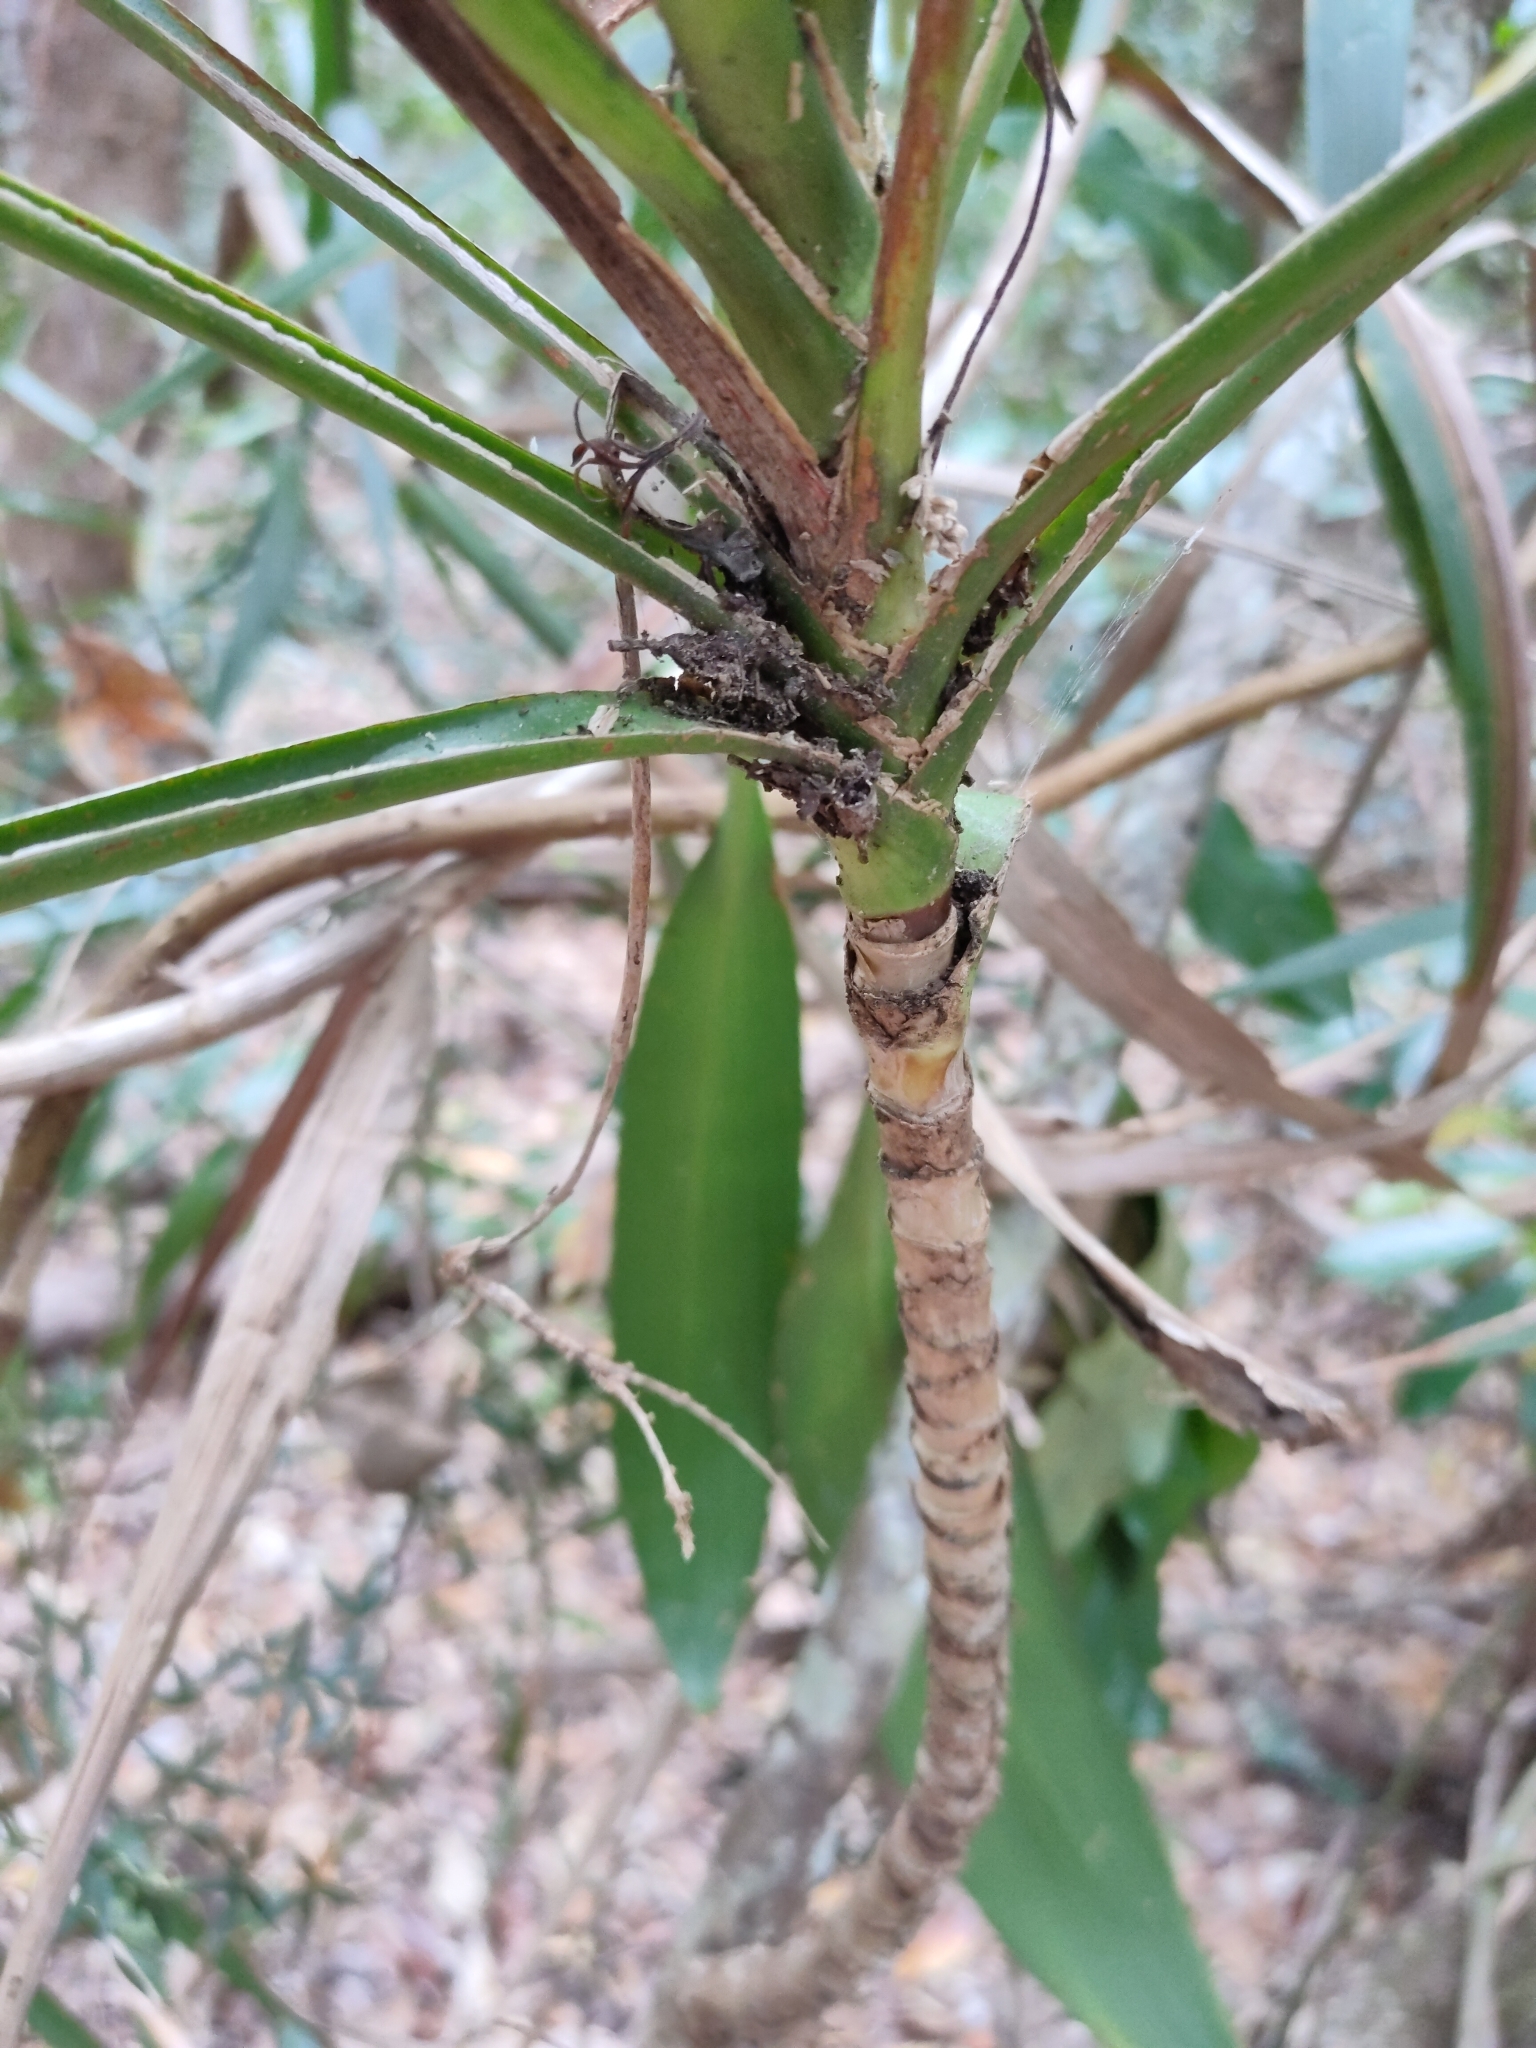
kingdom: Plantae
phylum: Tracheophyta
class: Liliopsida
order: Asparagales
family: Asparagaceae
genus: Cordyline
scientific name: Cordyline rubra
